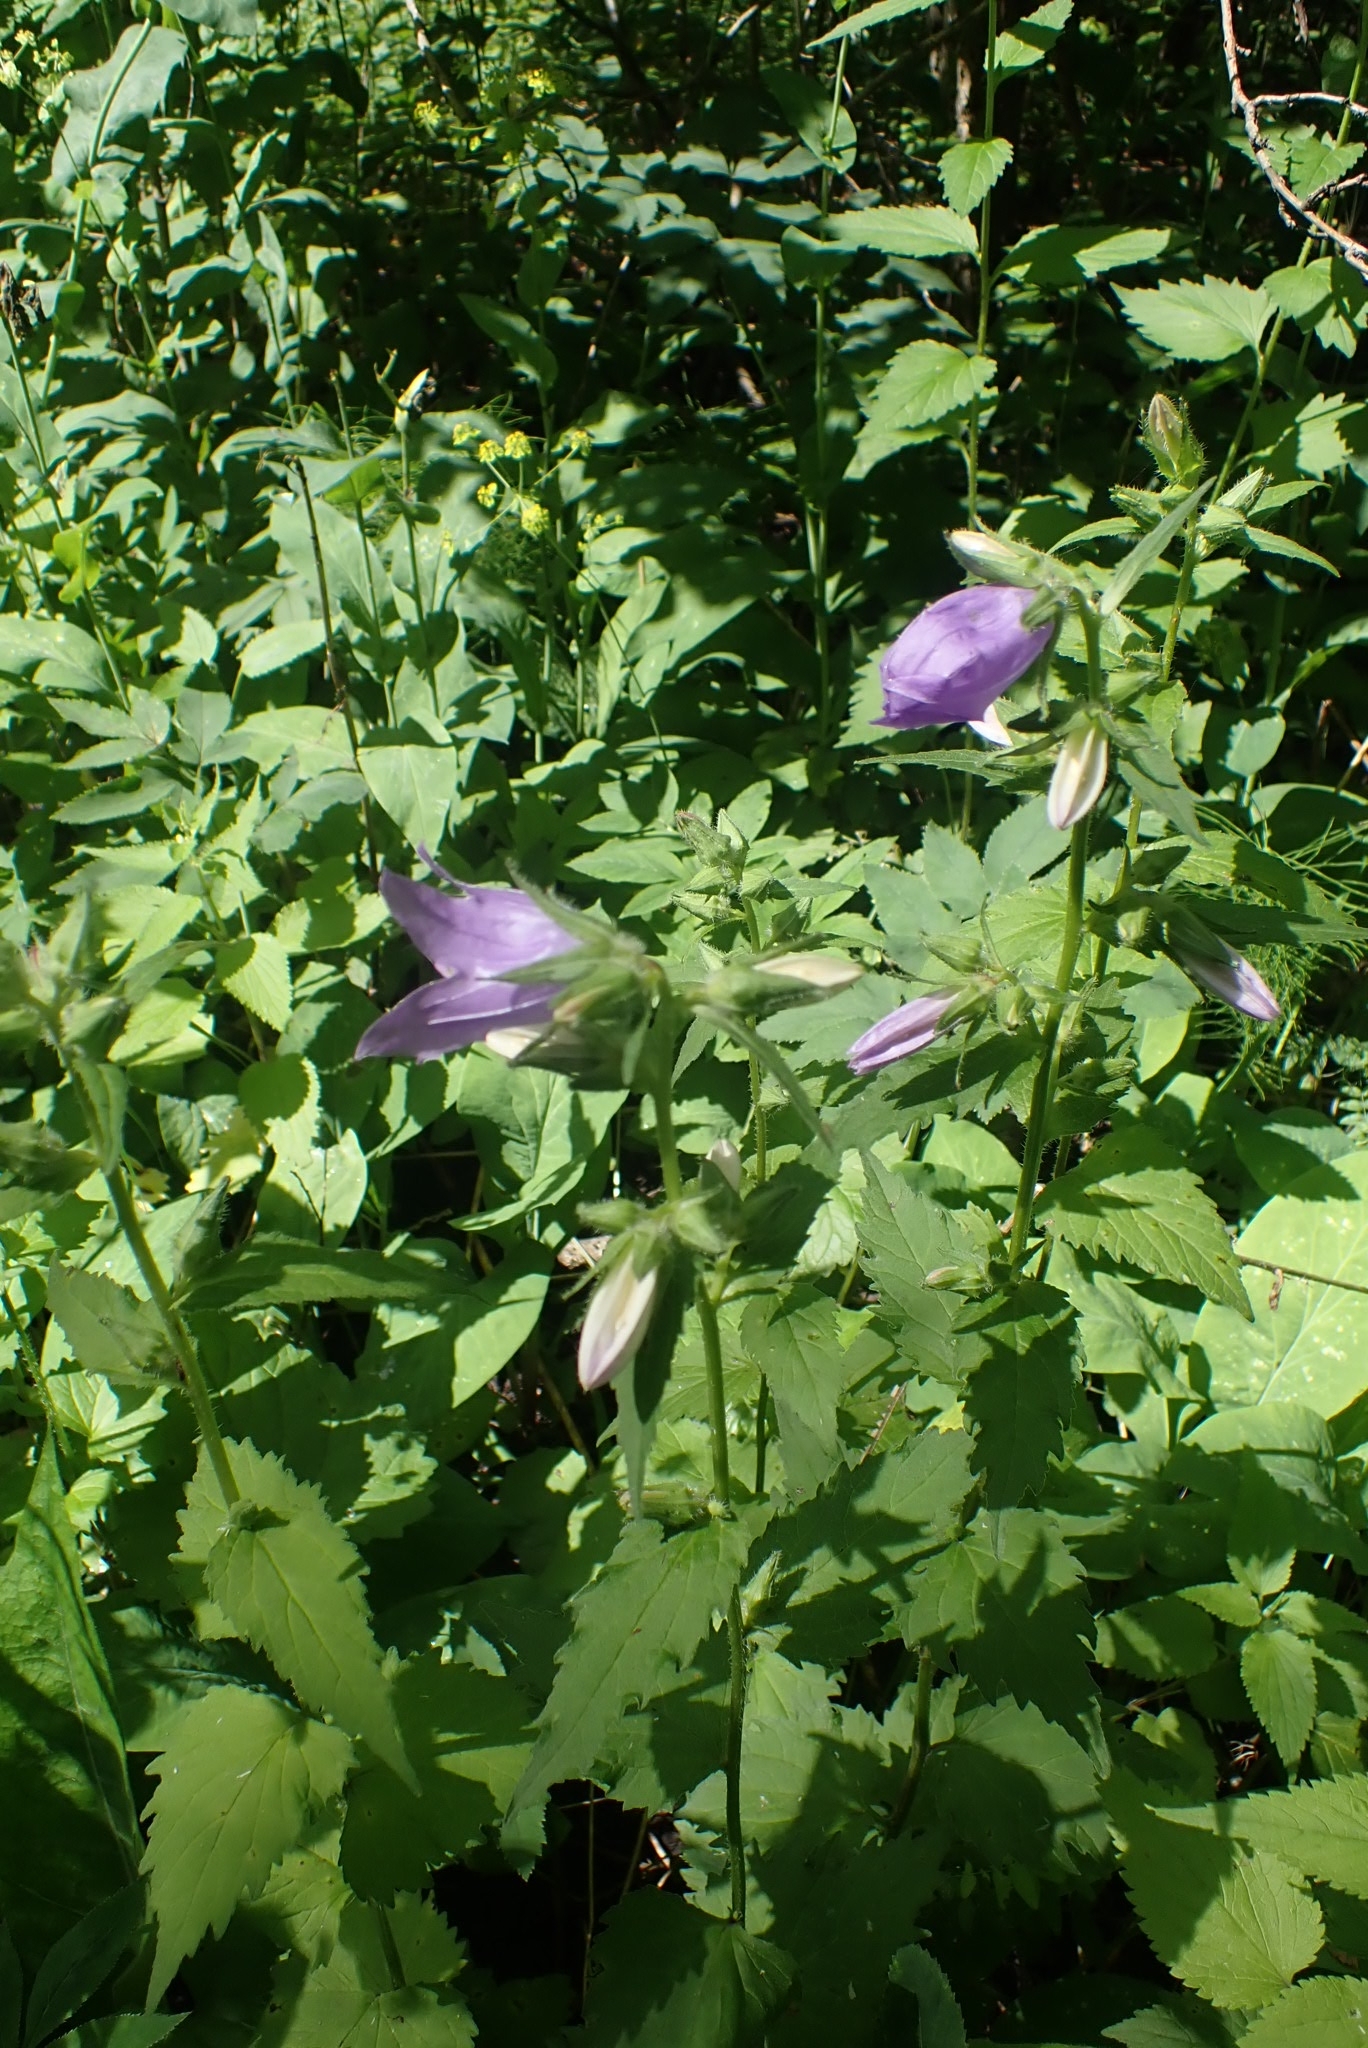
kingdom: Plantae
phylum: Tracheophyta
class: Magnoliopsida
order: Asterales
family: Campanulaceae
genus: Campanula
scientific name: Campanula trachelium
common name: Nettle-leaved bellflower
